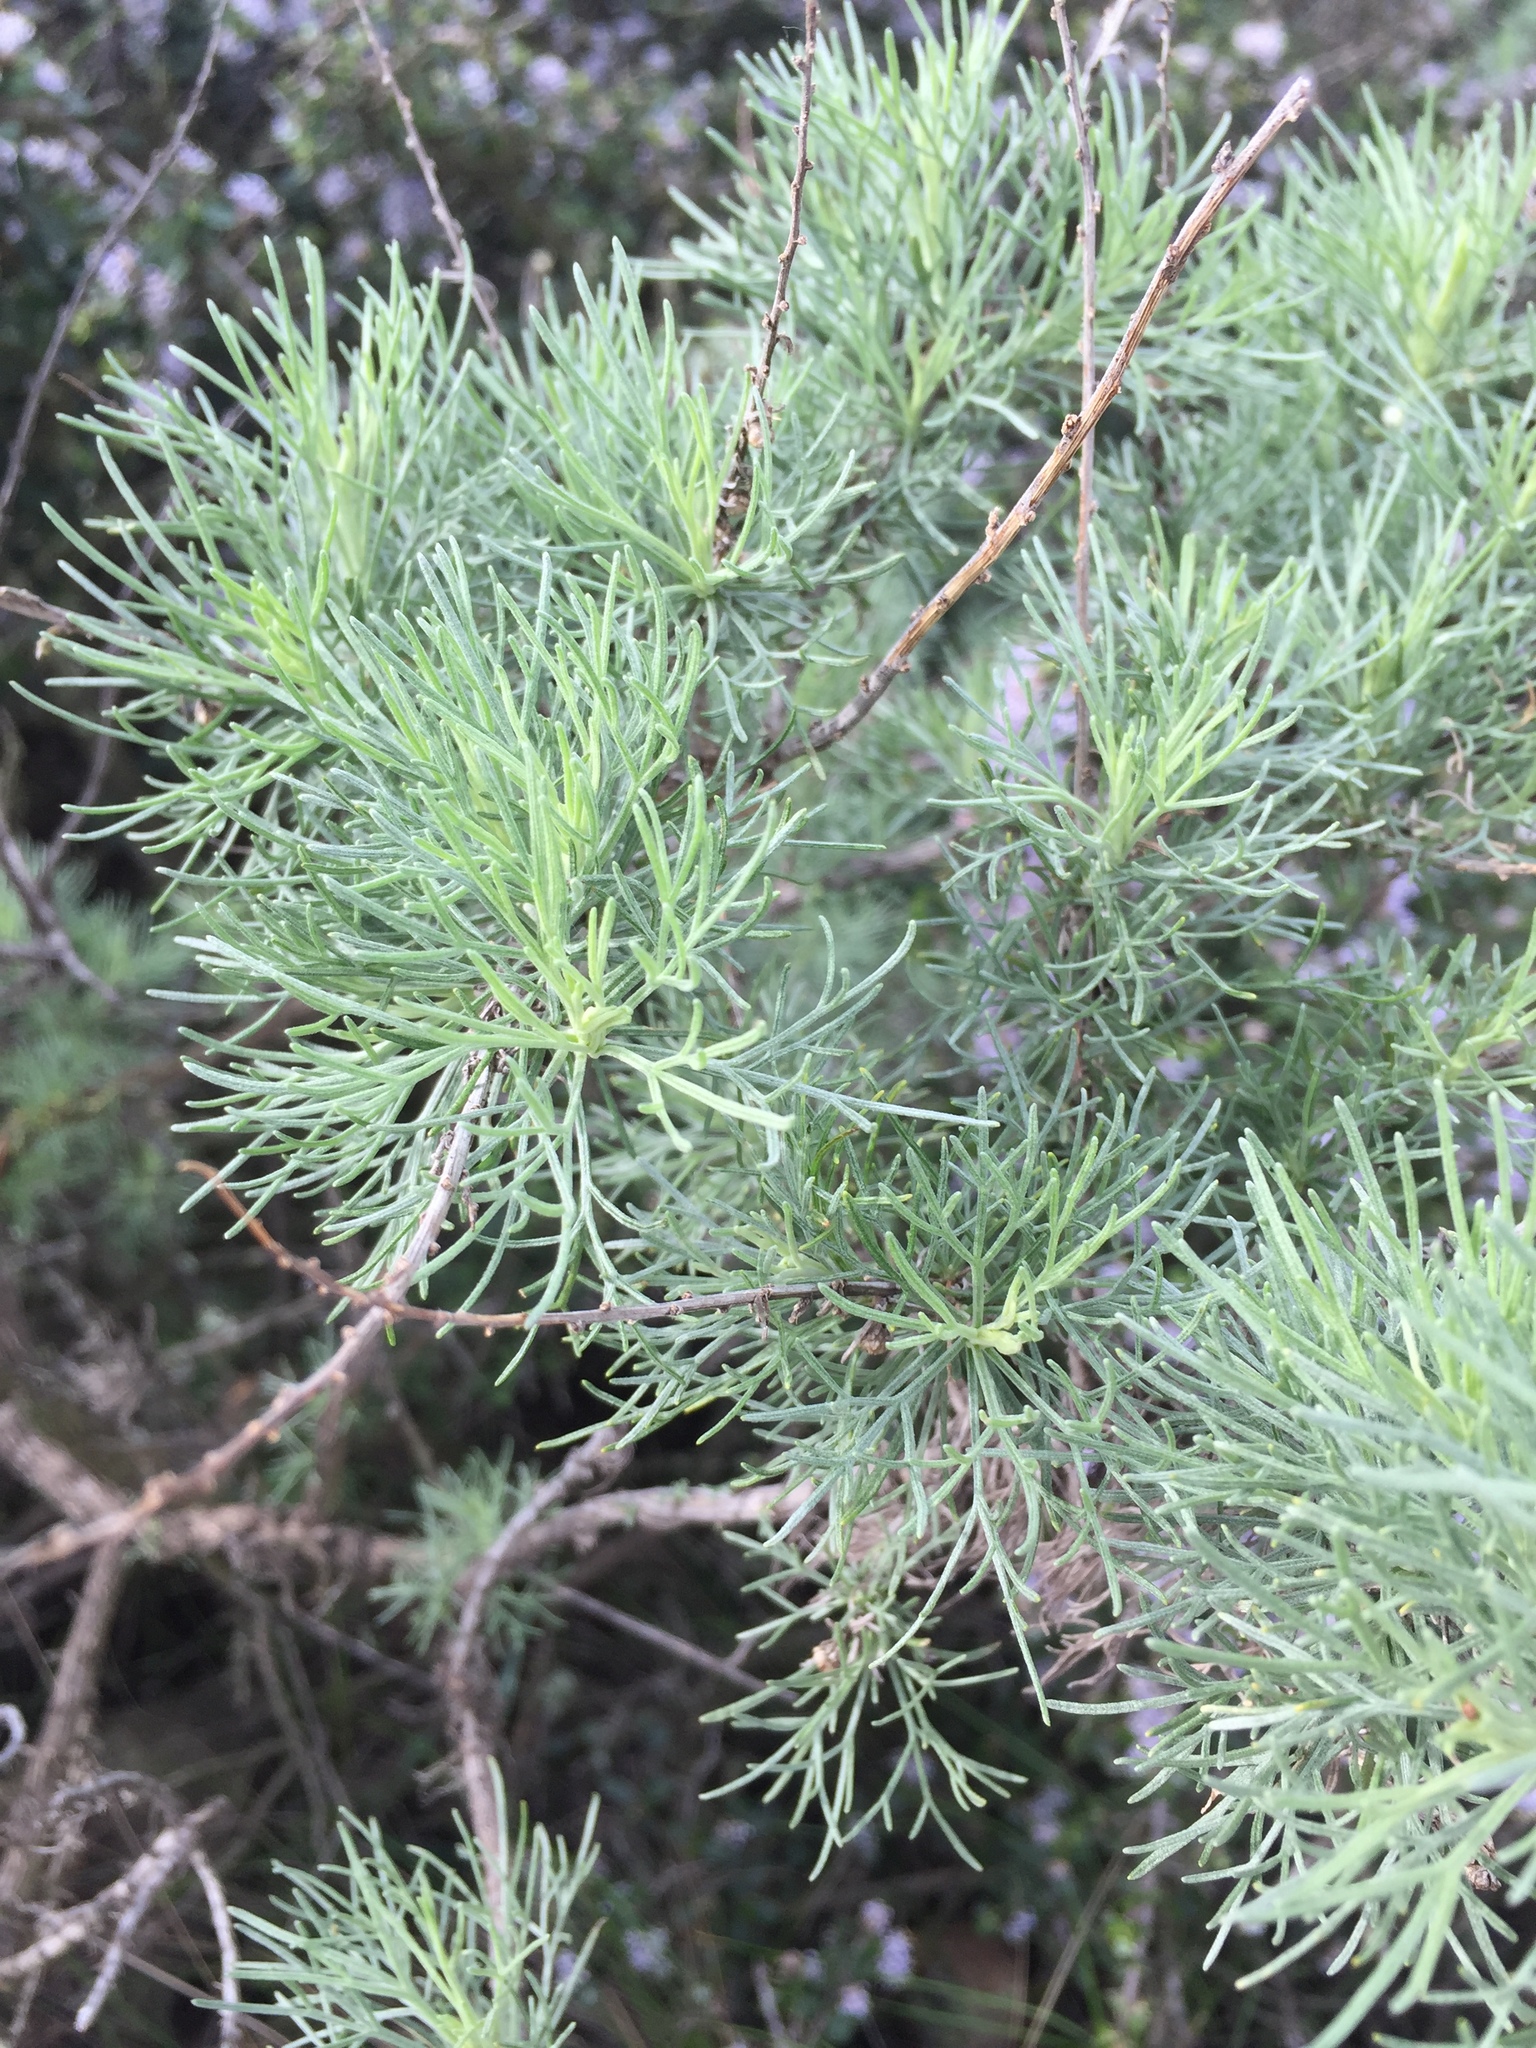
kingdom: Plantae
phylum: Tracheophyta
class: Magnoliopsida
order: Asterales
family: Asteraceae
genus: Artemisia
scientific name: Artemisia californica
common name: California sagebrush
